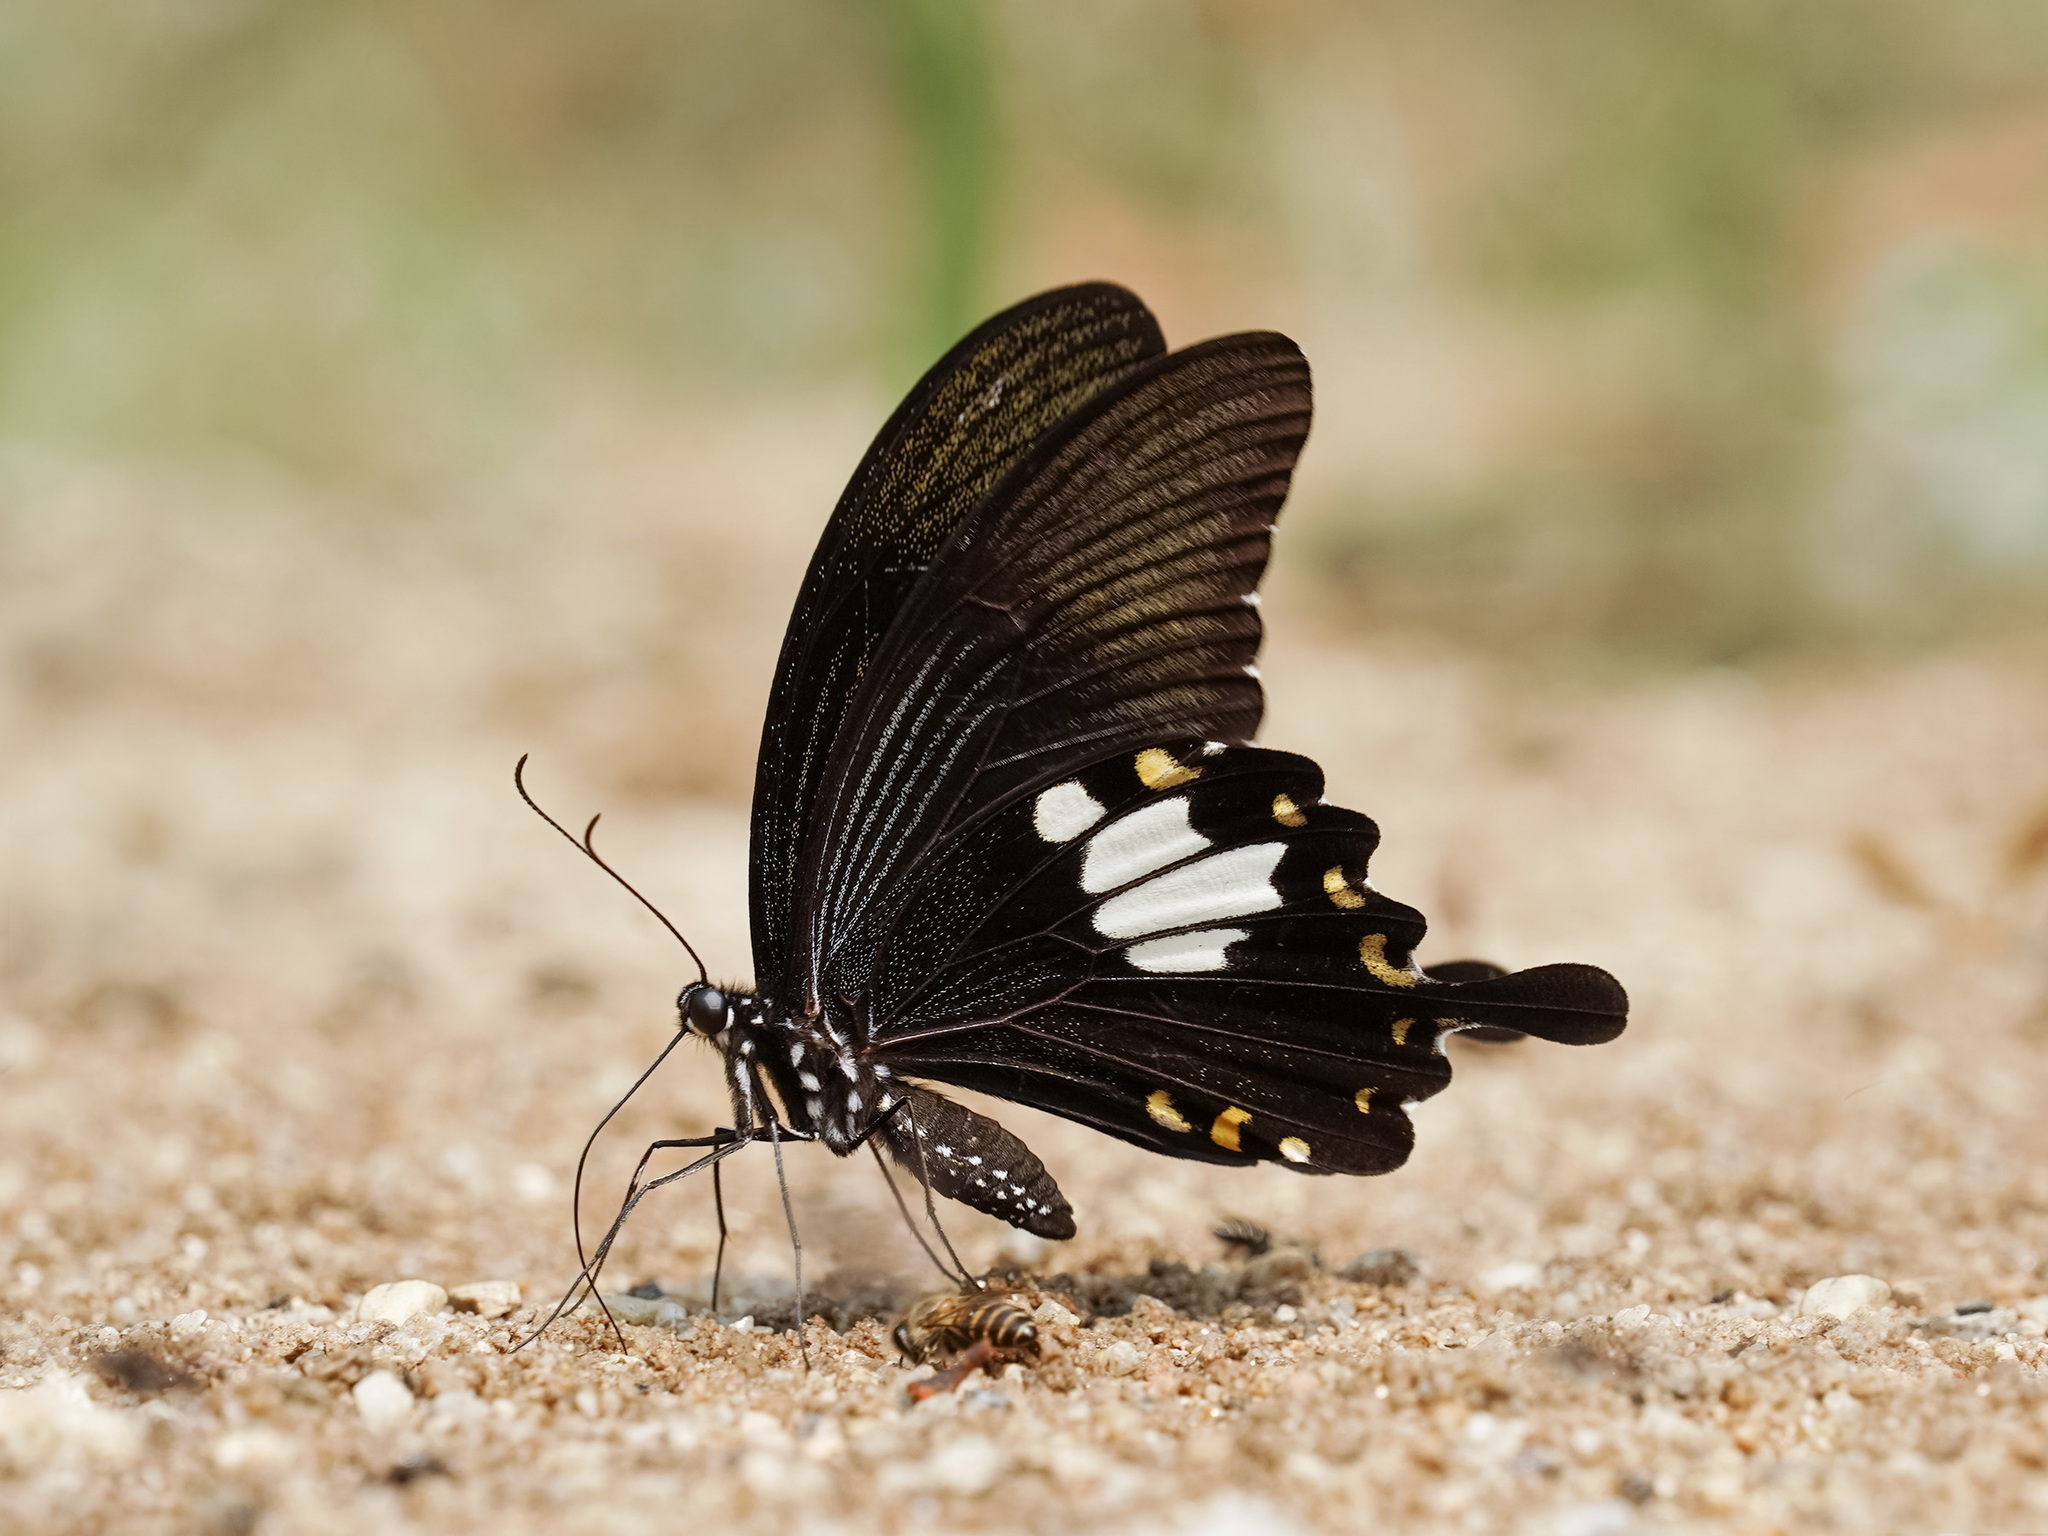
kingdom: Animalia
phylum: Arthropoda
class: Insecta
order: Lepidoptera
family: Papilionidae
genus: Papilio
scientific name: Papilio nephelus
